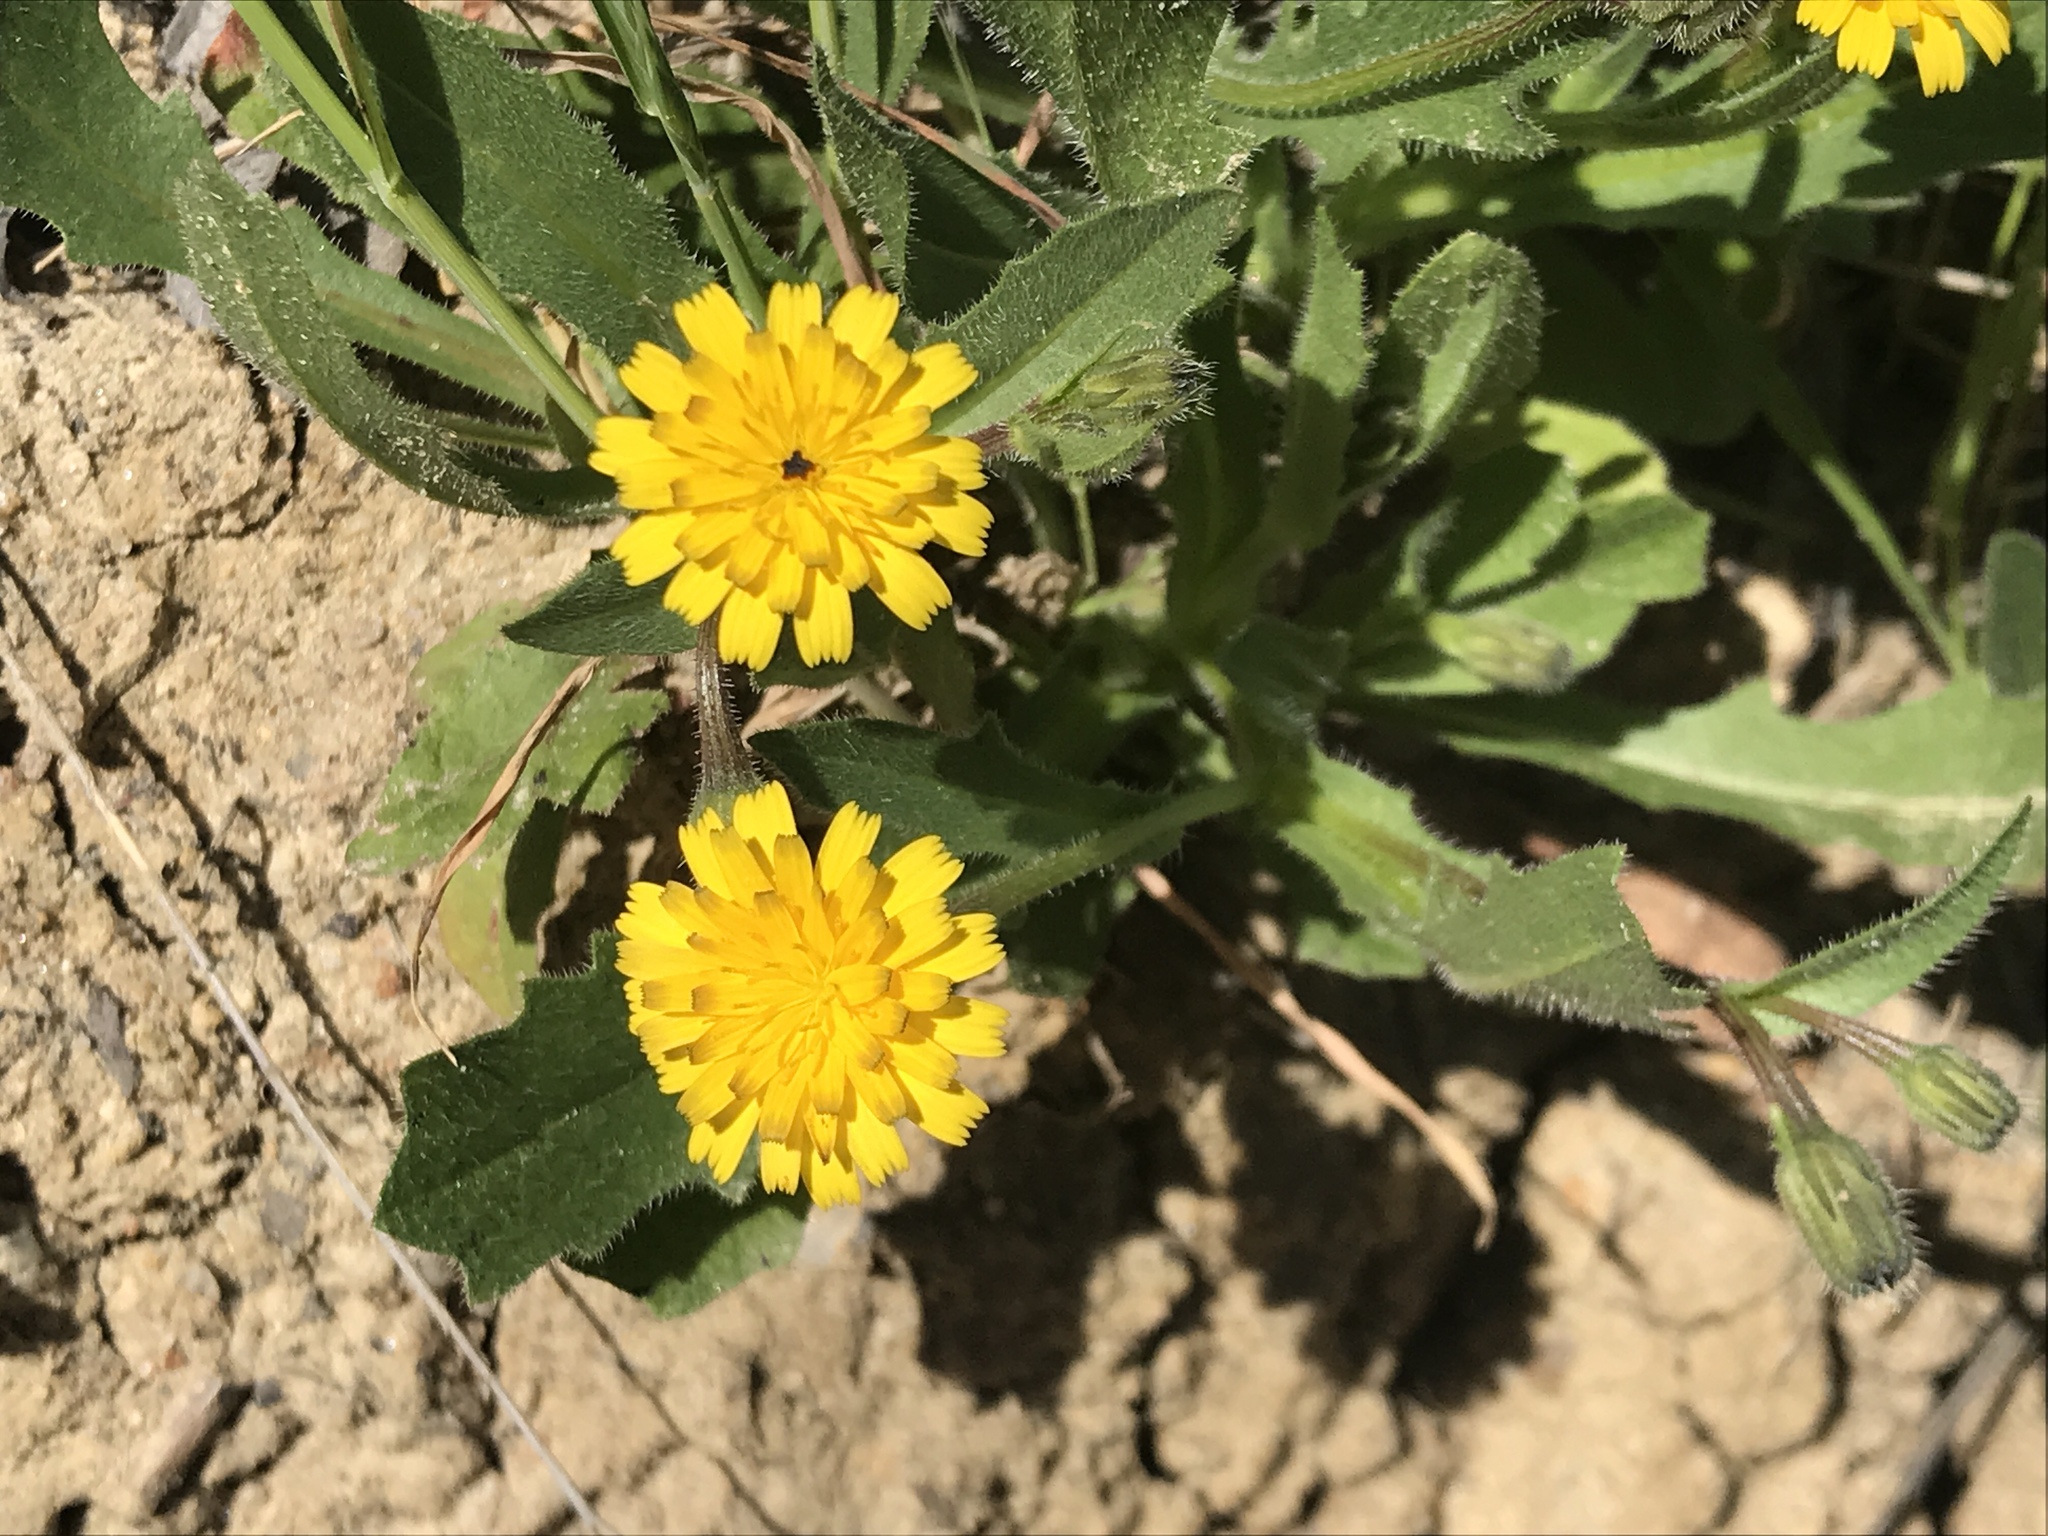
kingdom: Plantae
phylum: Tracheophyta
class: Magnoliopsida
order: Asterales
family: Asteraceae
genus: Hedypnois
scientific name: Hedypnois rhagadioloides
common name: Cretan weed
